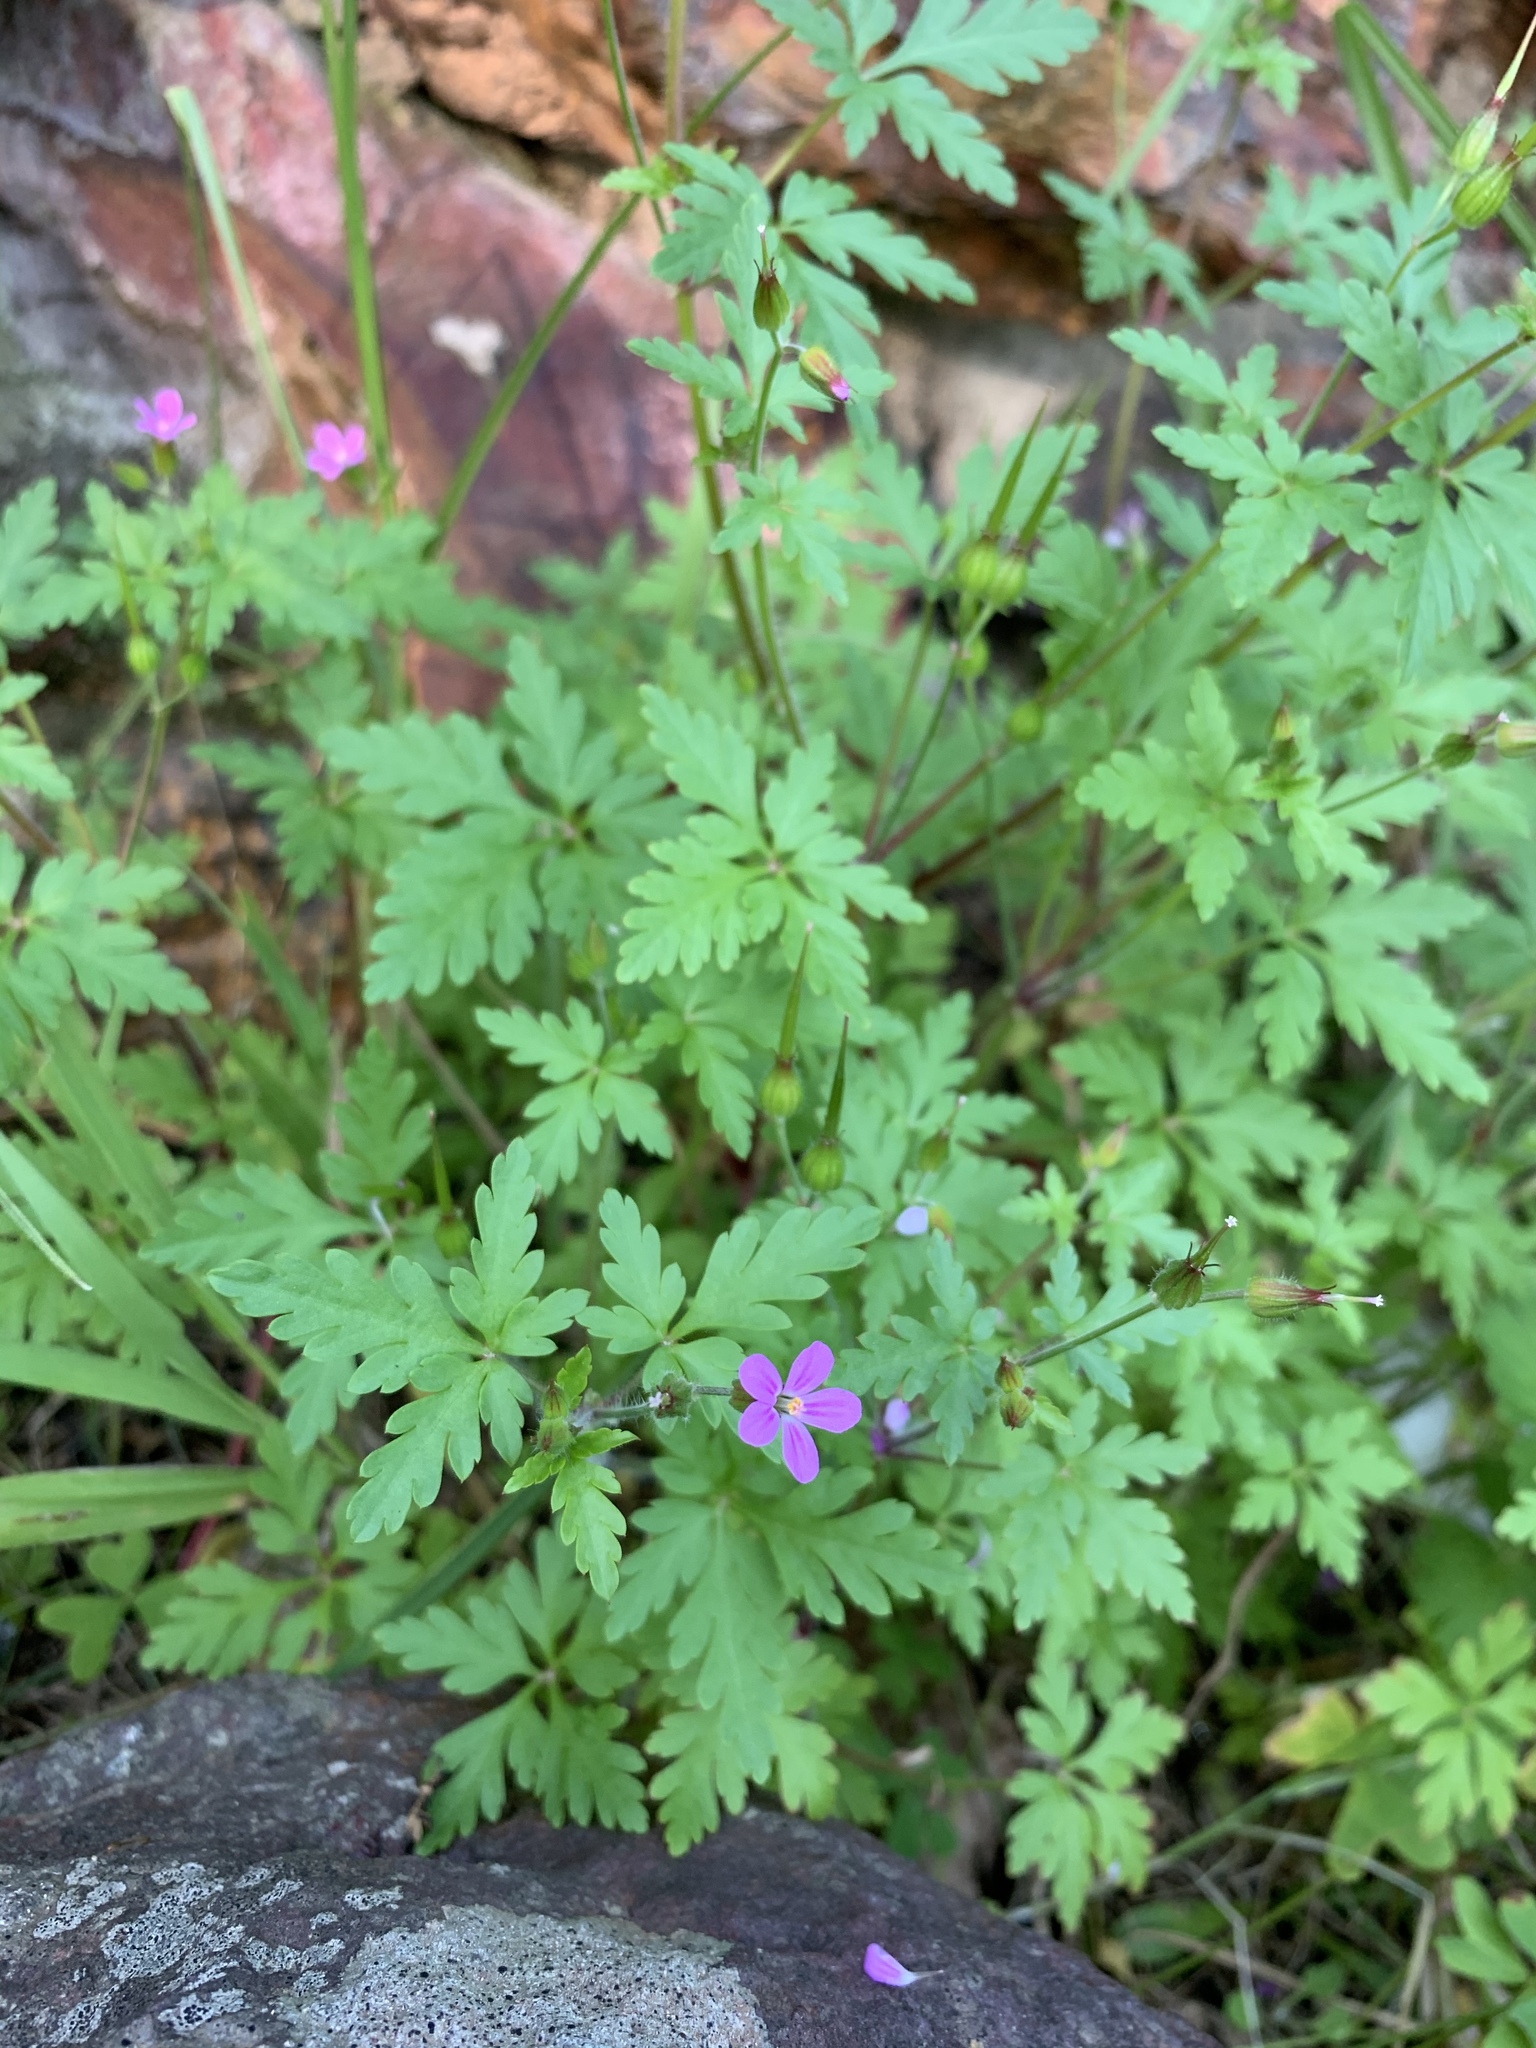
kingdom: Plantae
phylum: Tracheophyta
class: Magnoliopsida
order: Geraniales
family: Geraniaceae
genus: Geranium
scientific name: Geranium purpureum
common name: Little-robin
